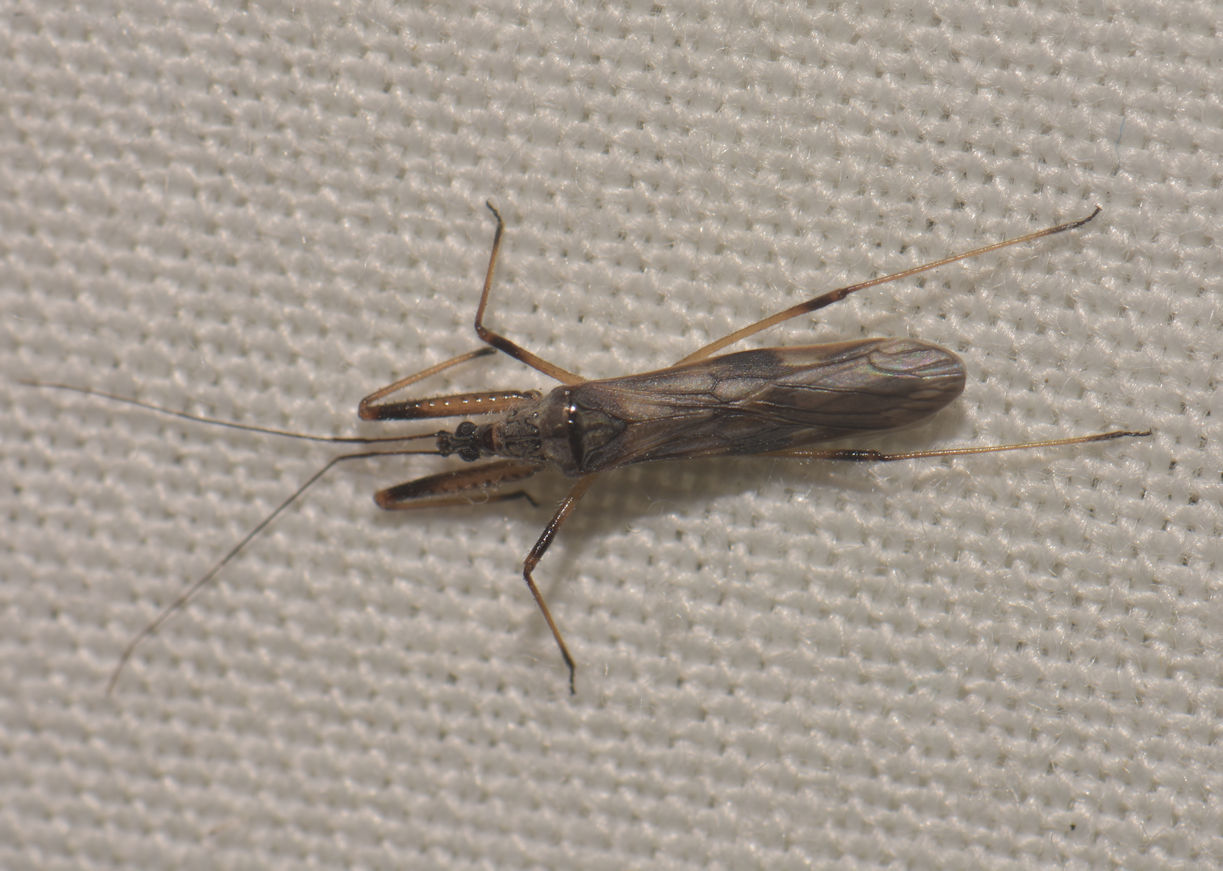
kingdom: Animalia
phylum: Arthropoda
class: Insecta
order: Hemiptera
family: Nabidae
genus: Metatropiphorus
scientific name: Metatropiphorus belfragii
